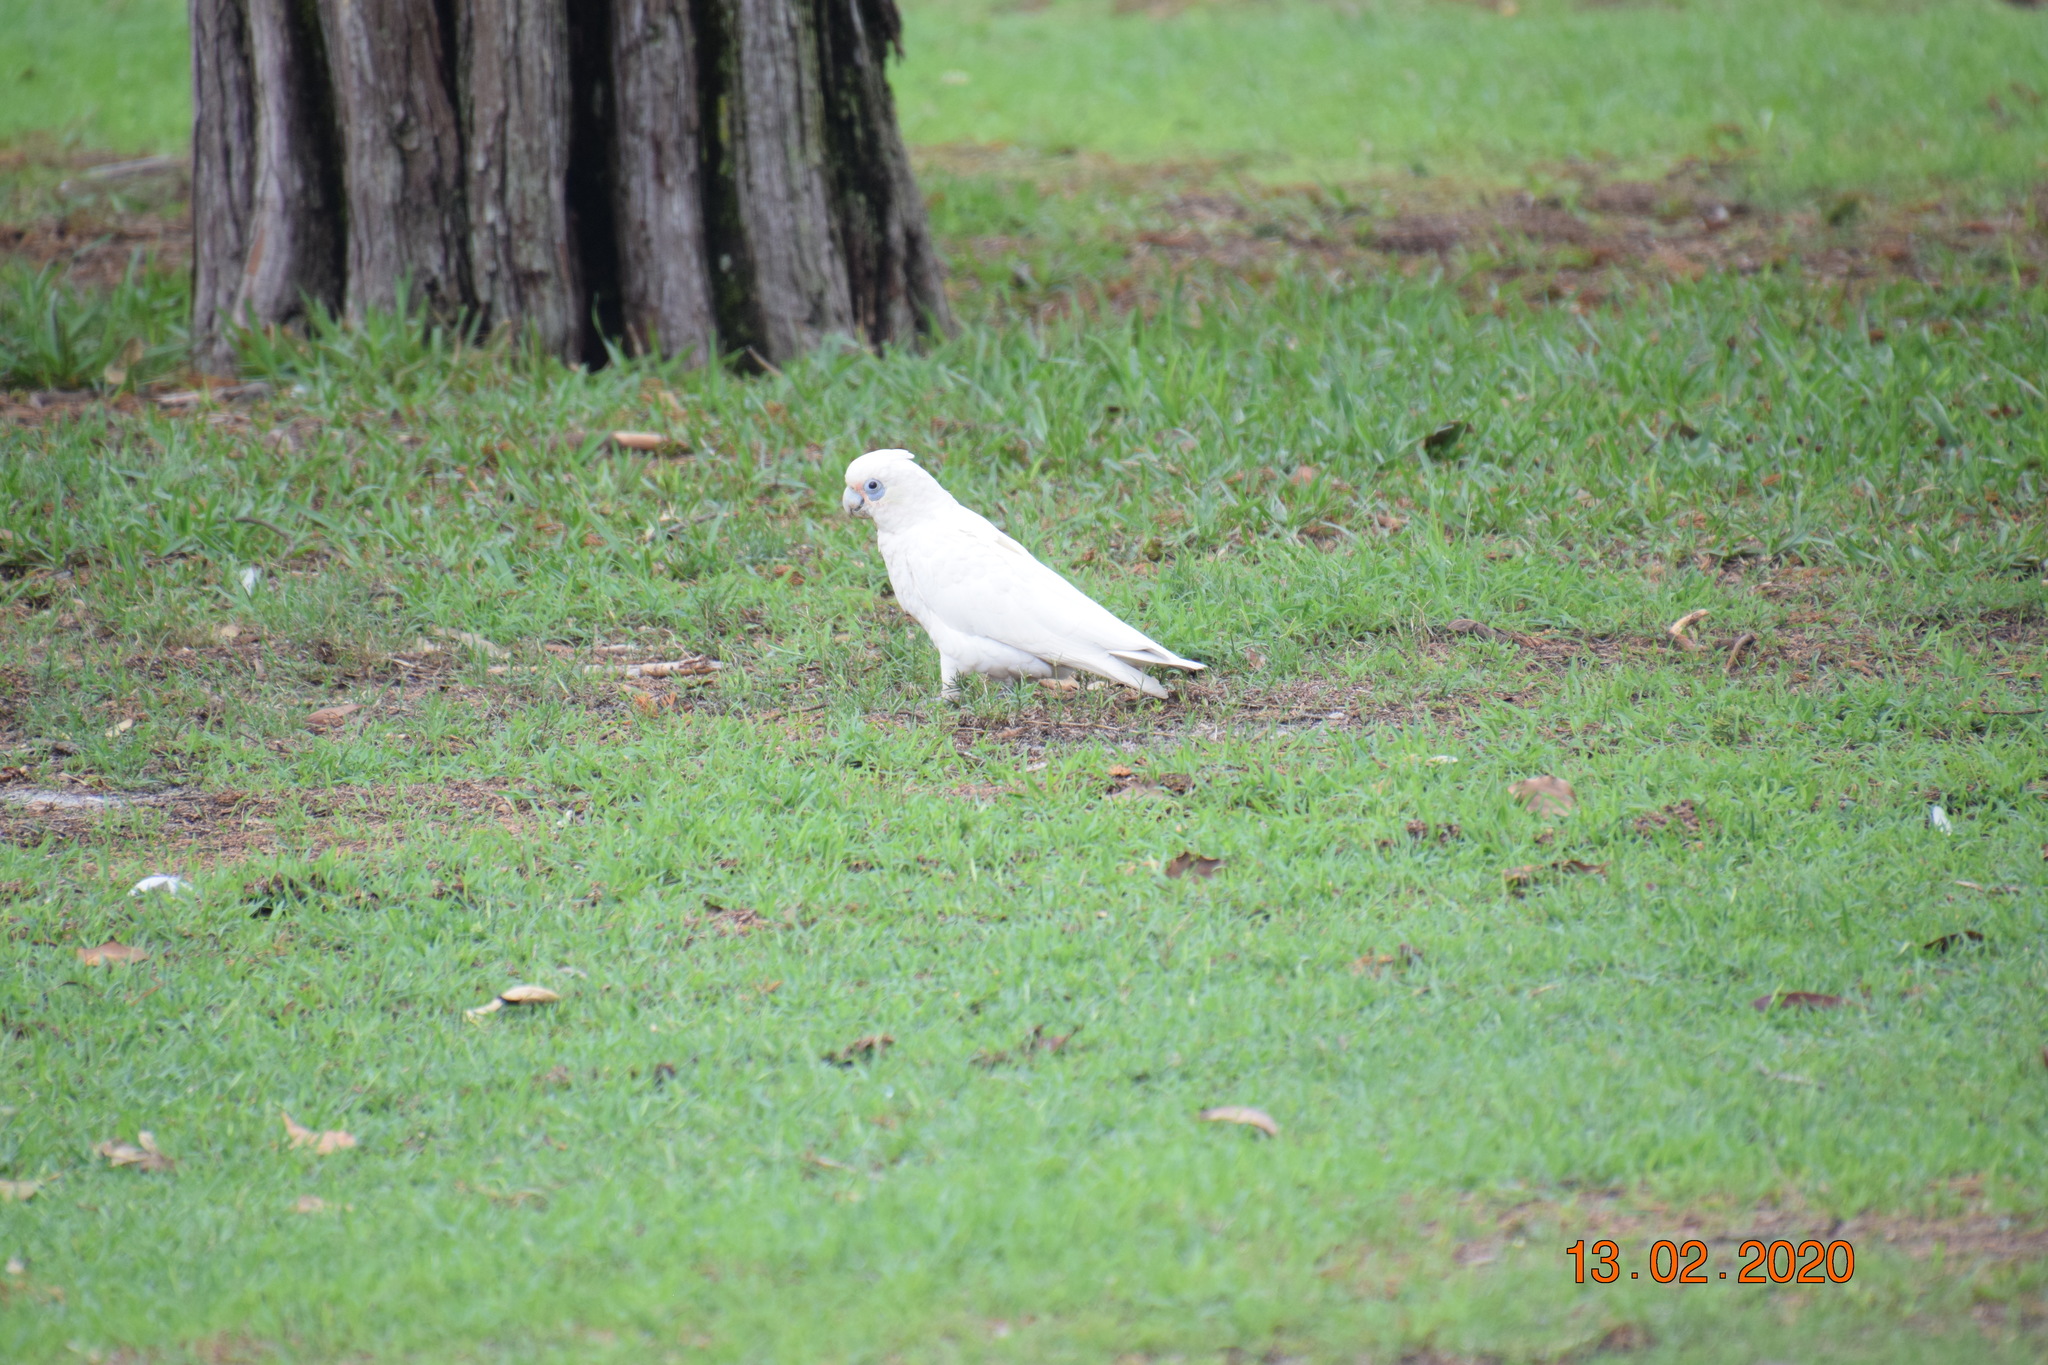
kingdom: Animalia
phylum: Chordata
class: Aves
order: Psittaciformes
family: Psittacidae
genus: Cacatua
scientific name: Cacatua sanguinea
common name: Little corella
